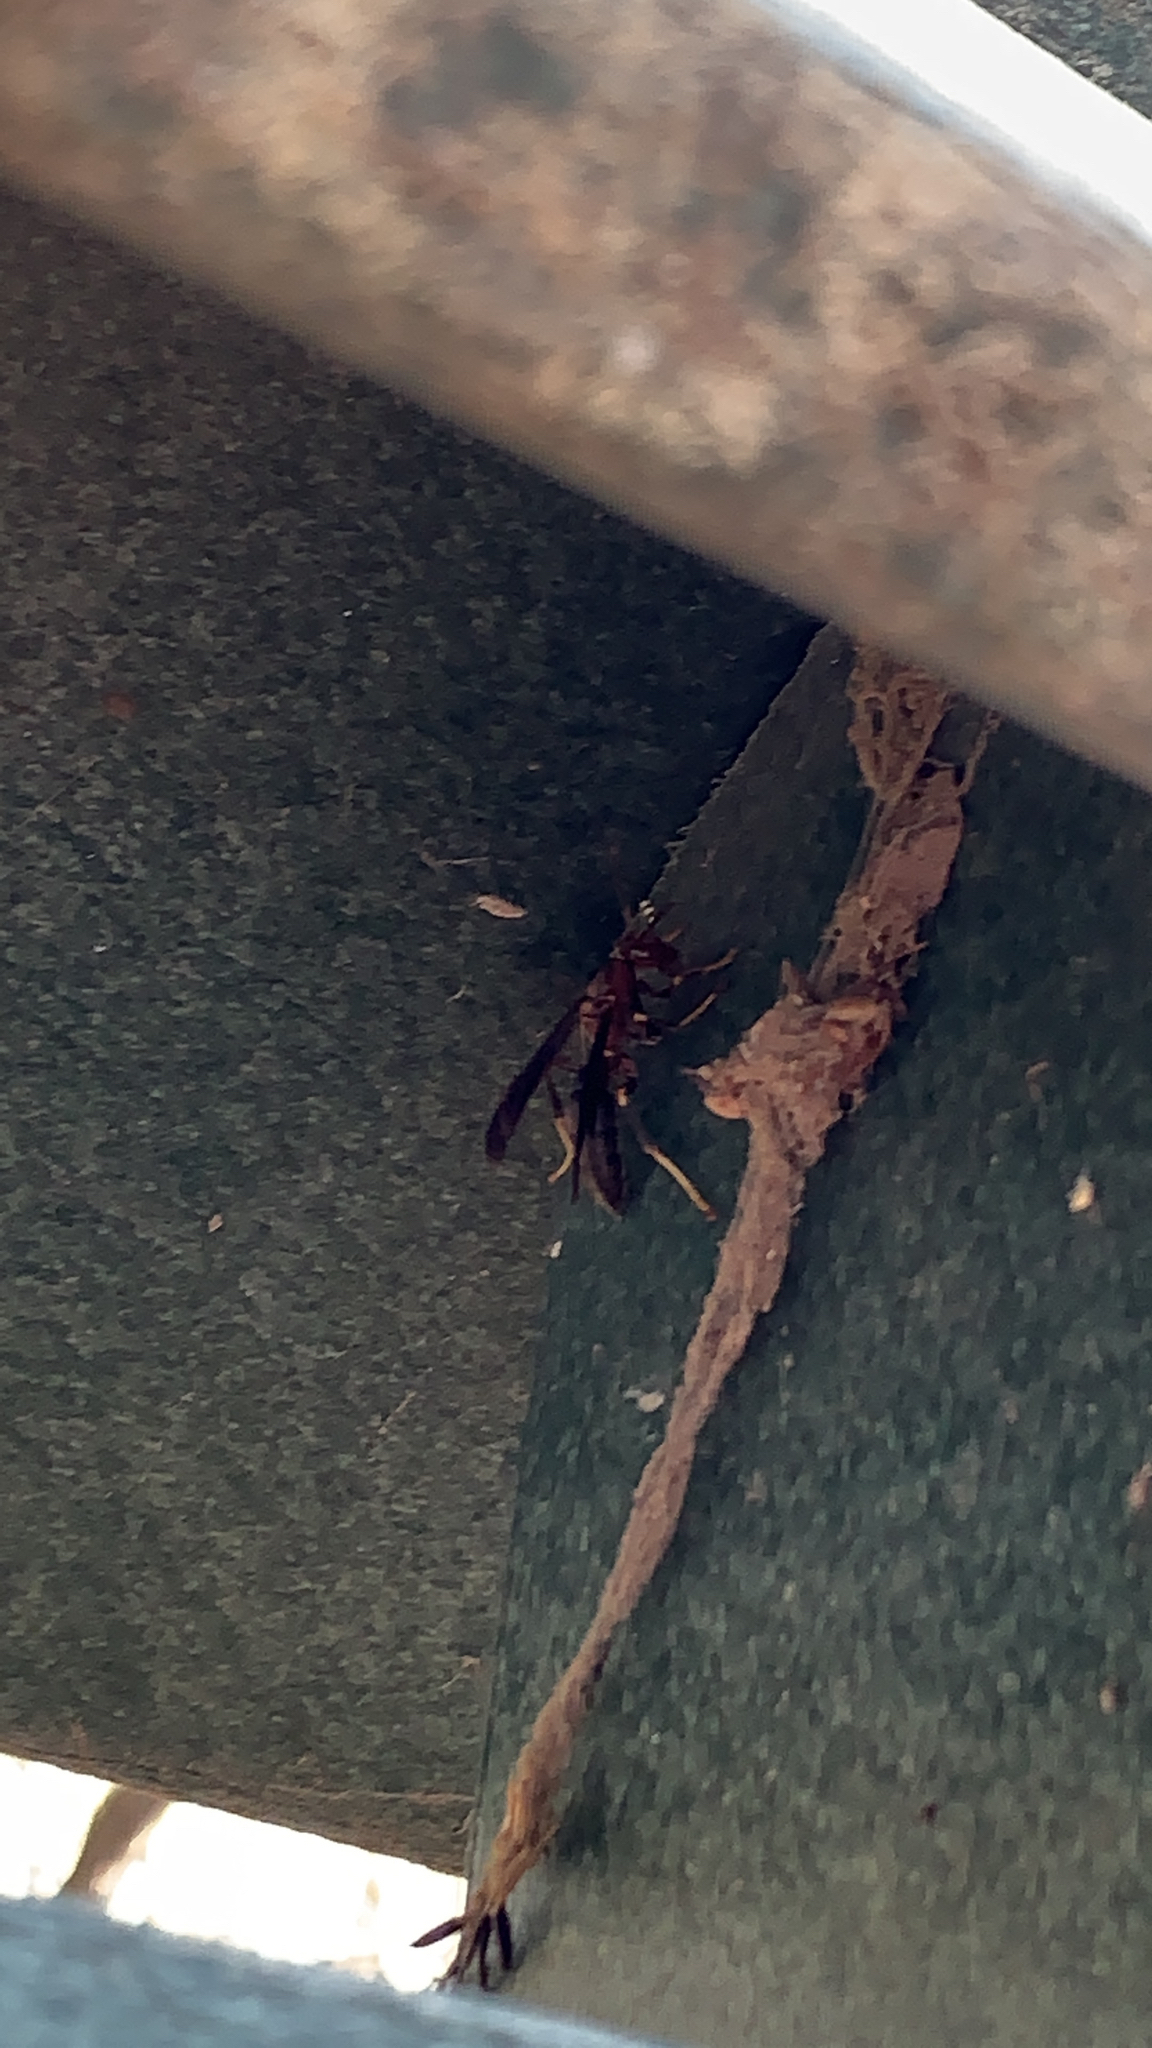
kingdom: Animalia
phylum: Arthropoda
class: Insecta
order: Hymenoptera
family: Eumenidae
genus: Polistes
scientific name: Polistes
